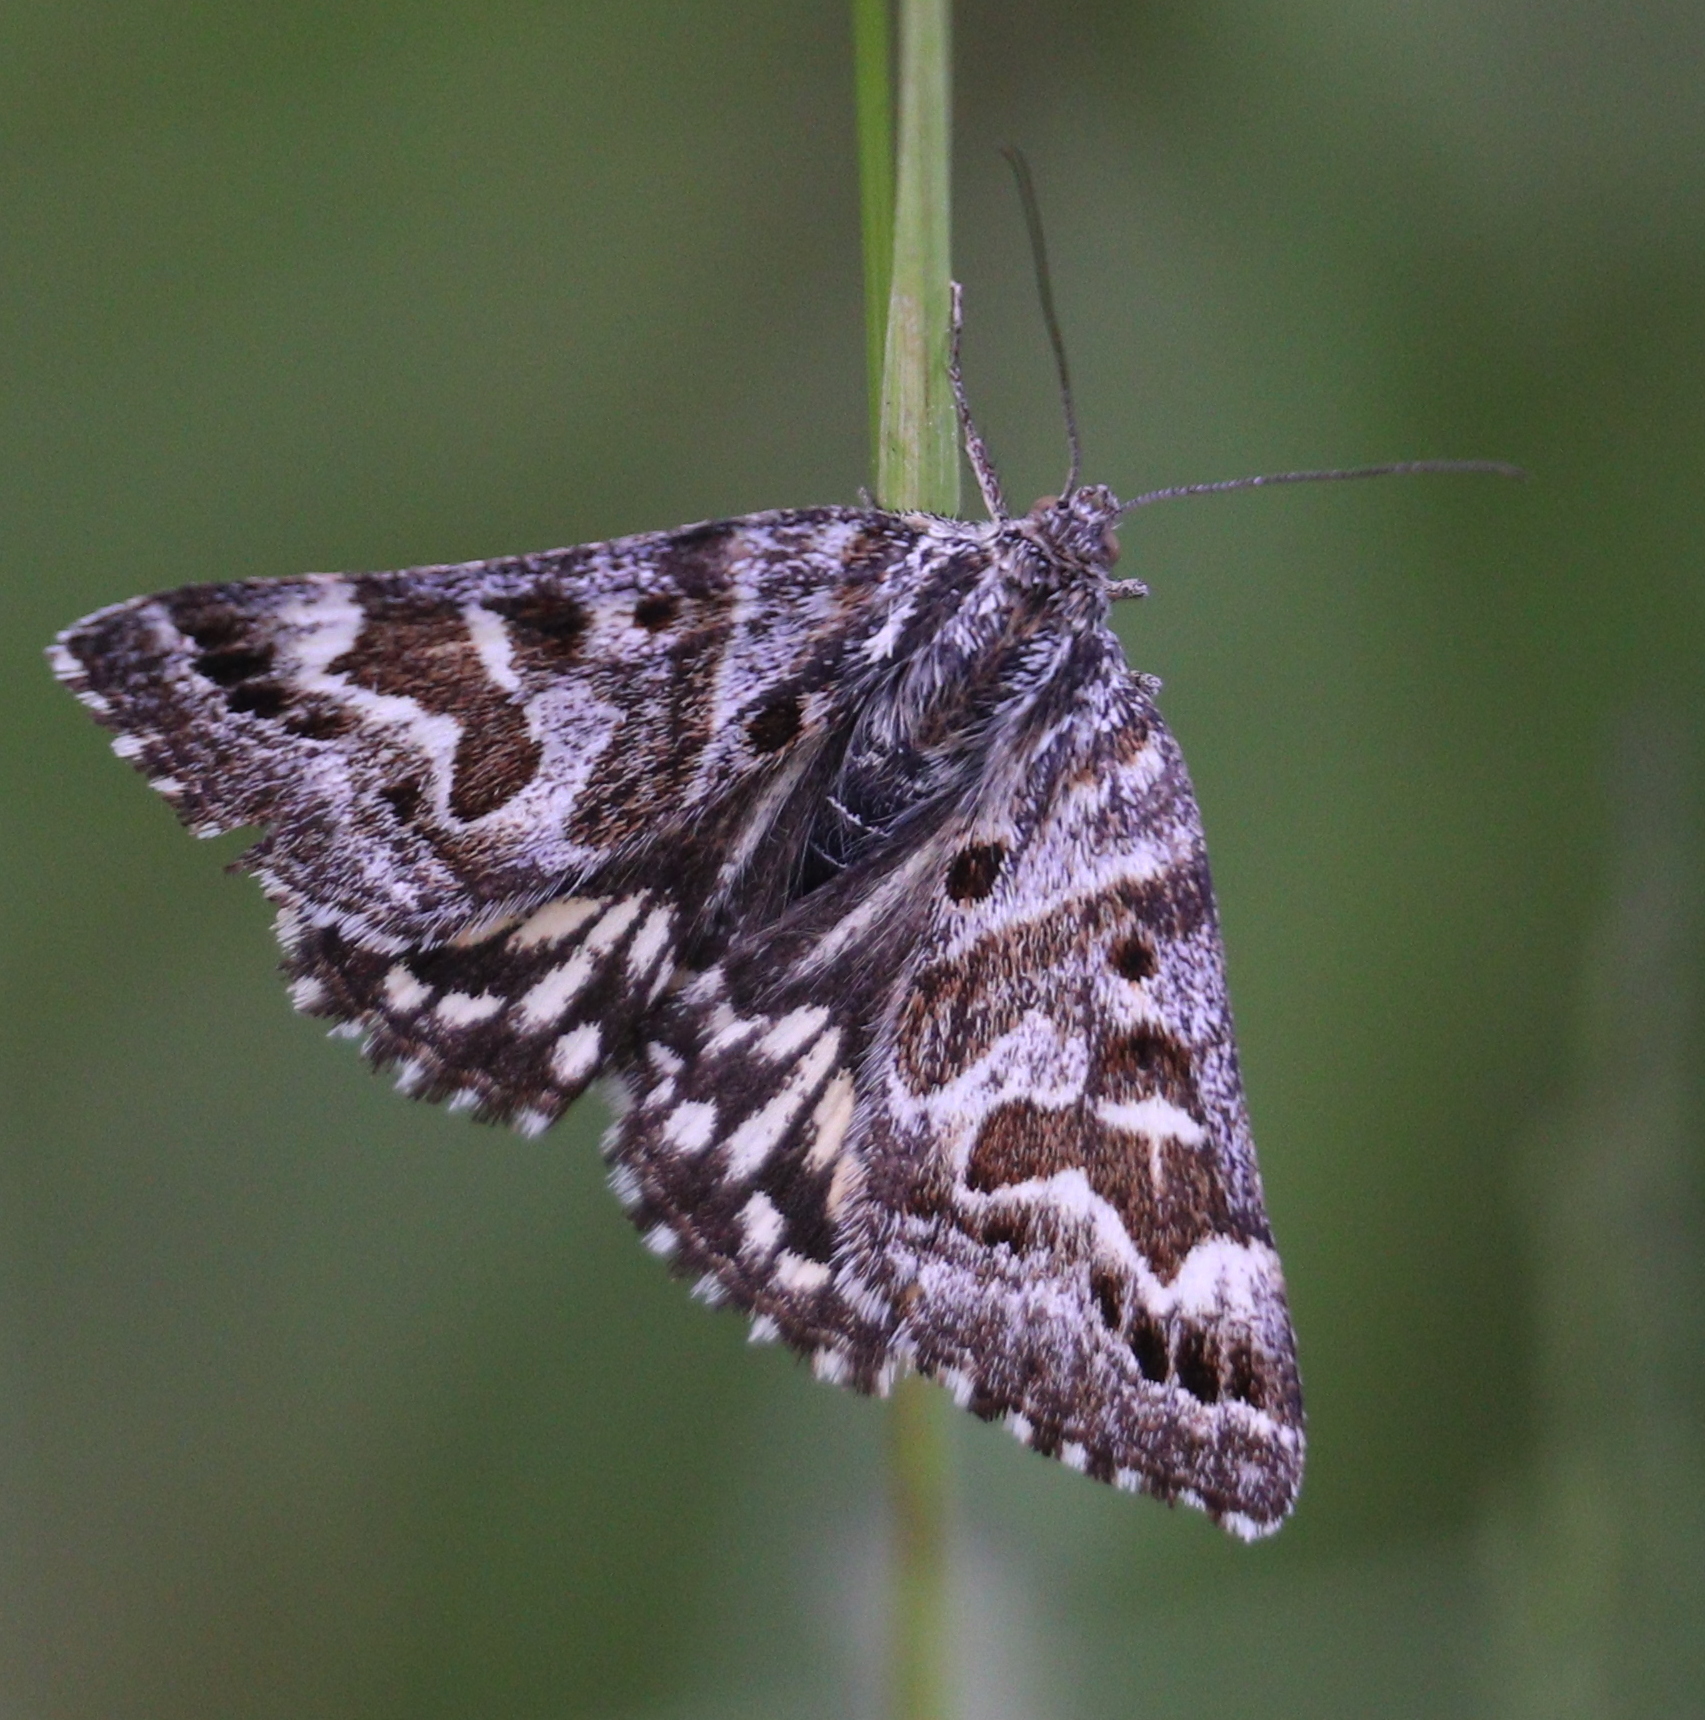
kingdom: Animalia
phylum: Arthropoda
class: Insecta
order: Lepidoptera
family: Erebidae
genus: Callistege
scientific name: Callistege mi
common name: Mother shipton
